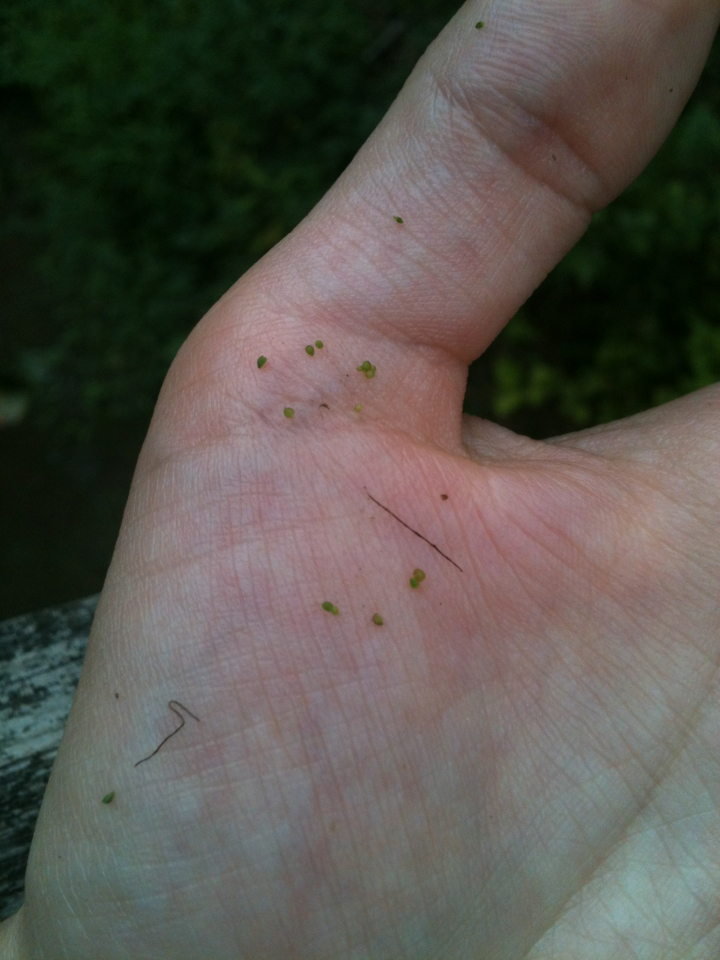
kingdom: Plantae
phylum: Tracheophyta
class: Liliopsida
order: Alismatales
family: Araceae
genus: Wolffia
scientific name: Wolffia
